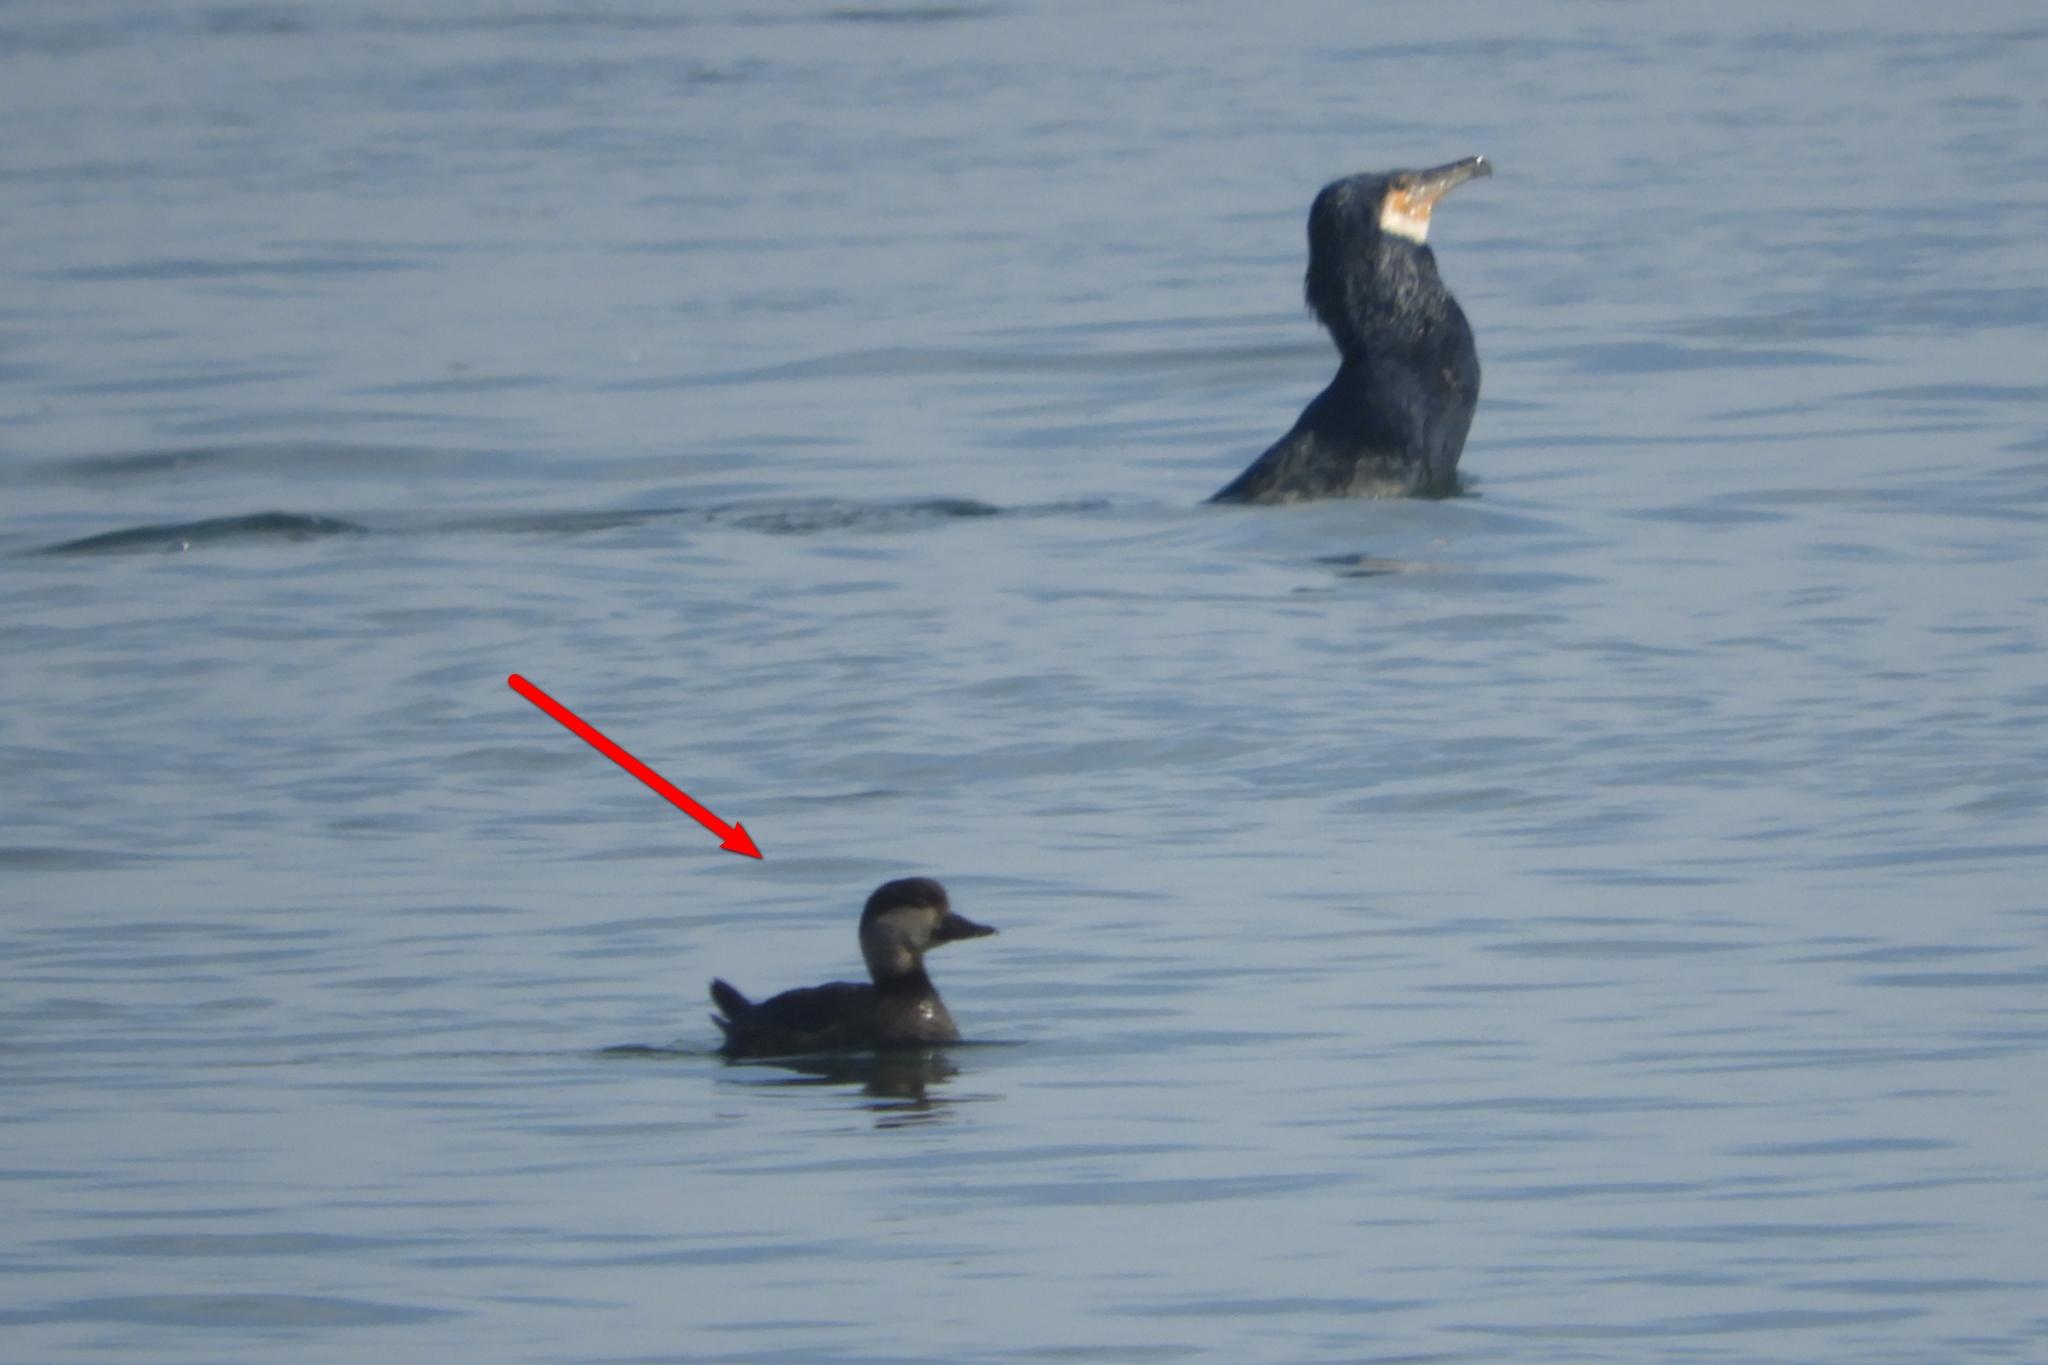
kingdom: Animalia
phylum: Chordata
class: Aves
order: Anseriformes
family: Anatidae
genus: Melanitta
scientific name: Melanitta americana
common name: Black scoter
